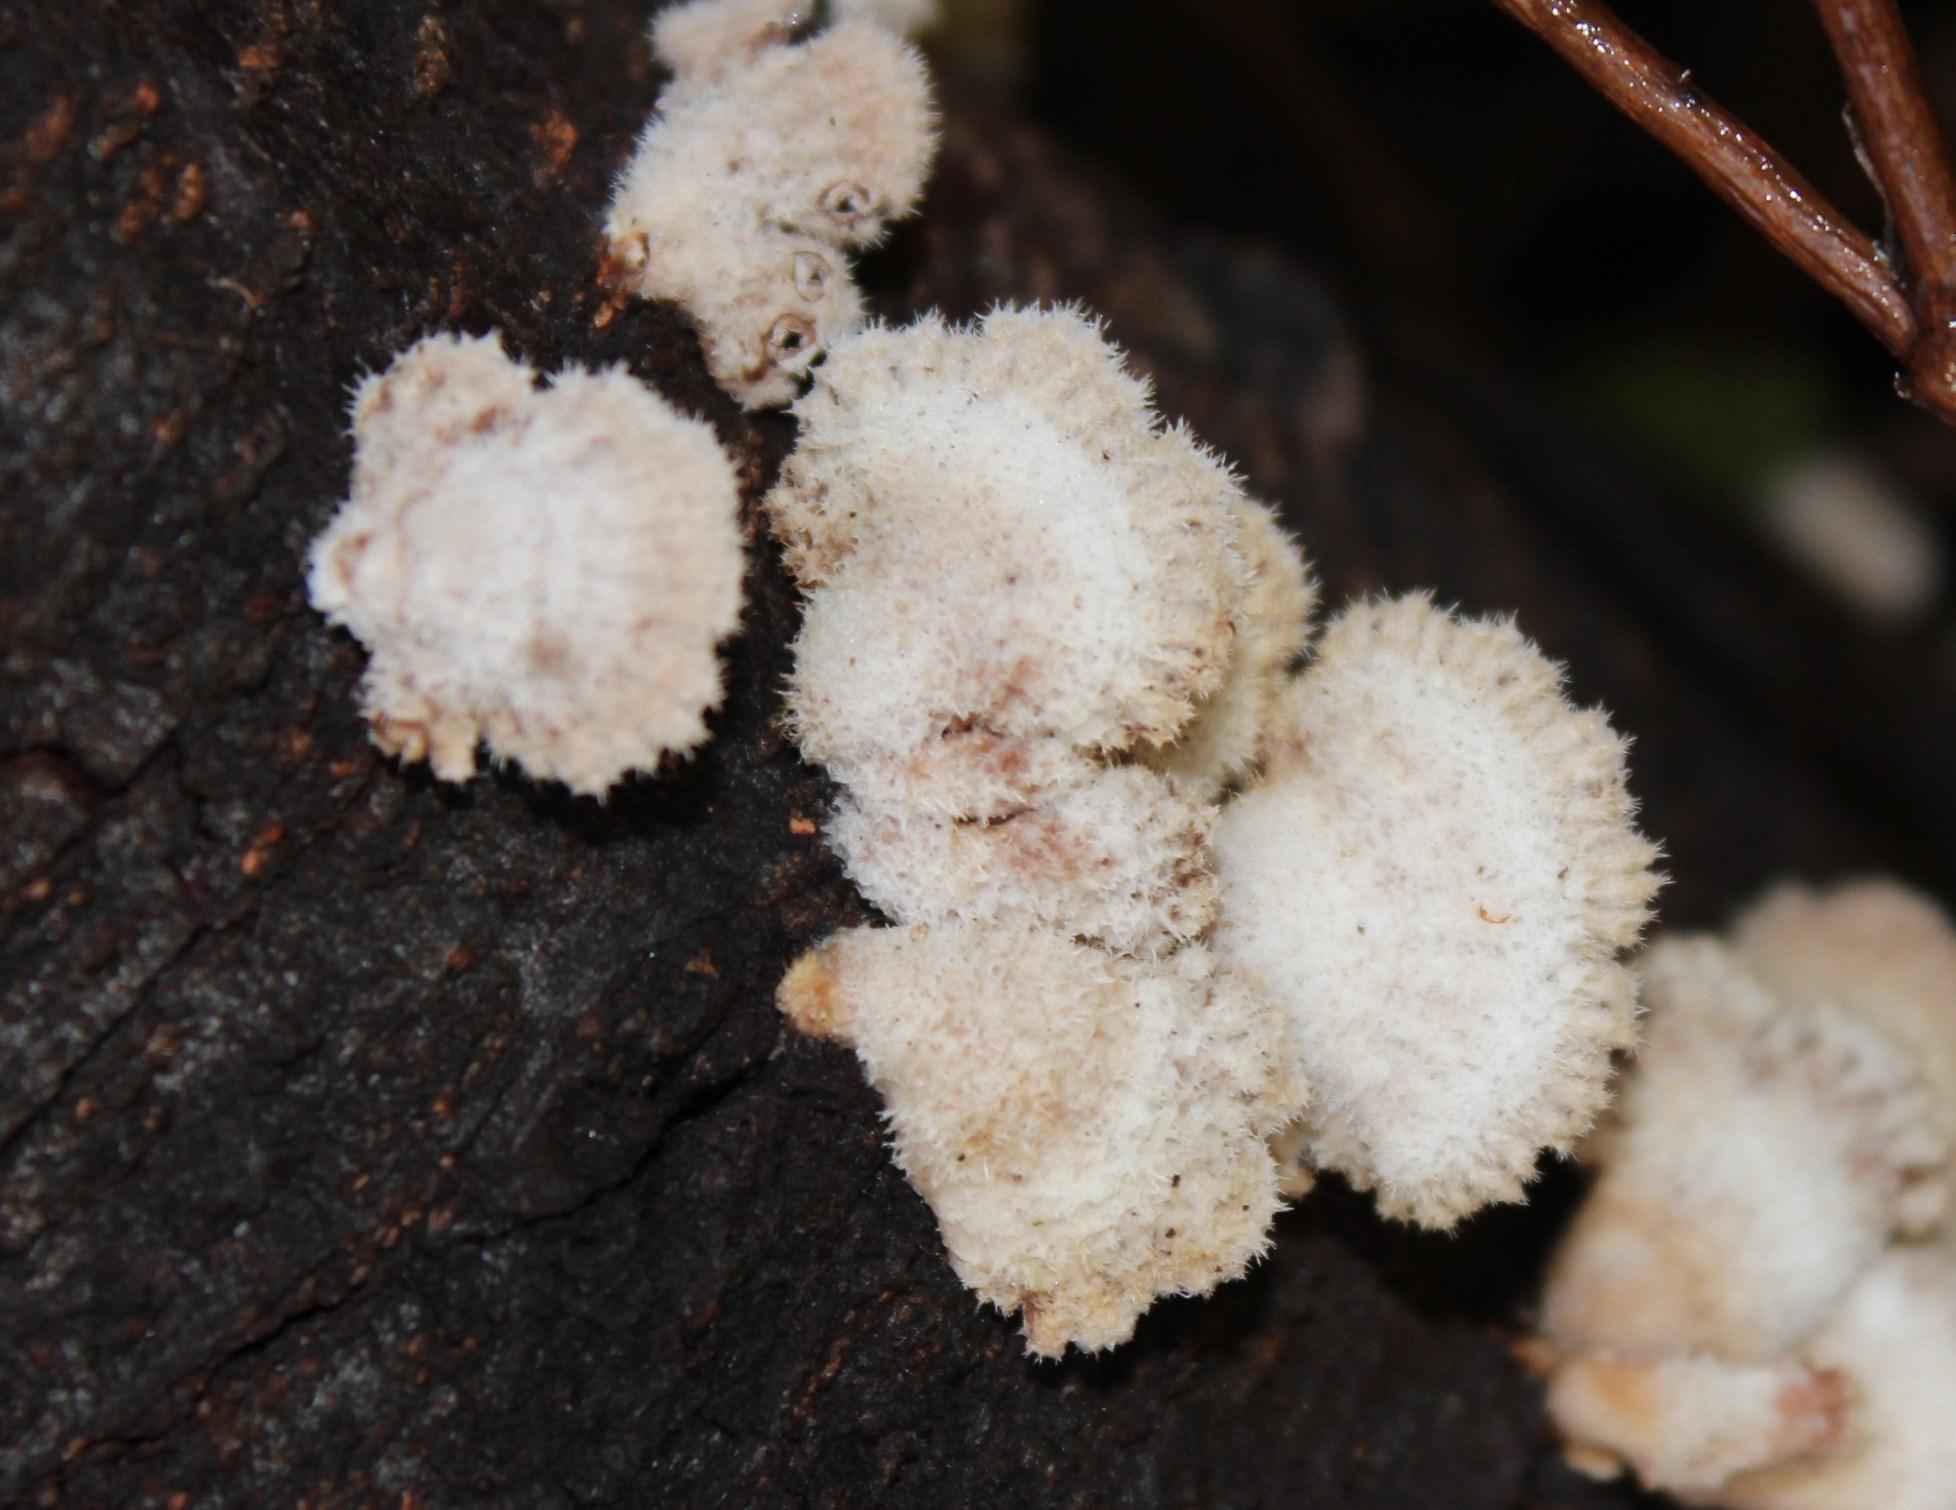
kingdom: Fungi
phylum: Basidiomycota
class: Agaricomycetes
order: Agaricales
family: Schizophyllaceae
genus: Schizophyllum
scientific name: Schizophyllum commune
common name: Common porecrust
